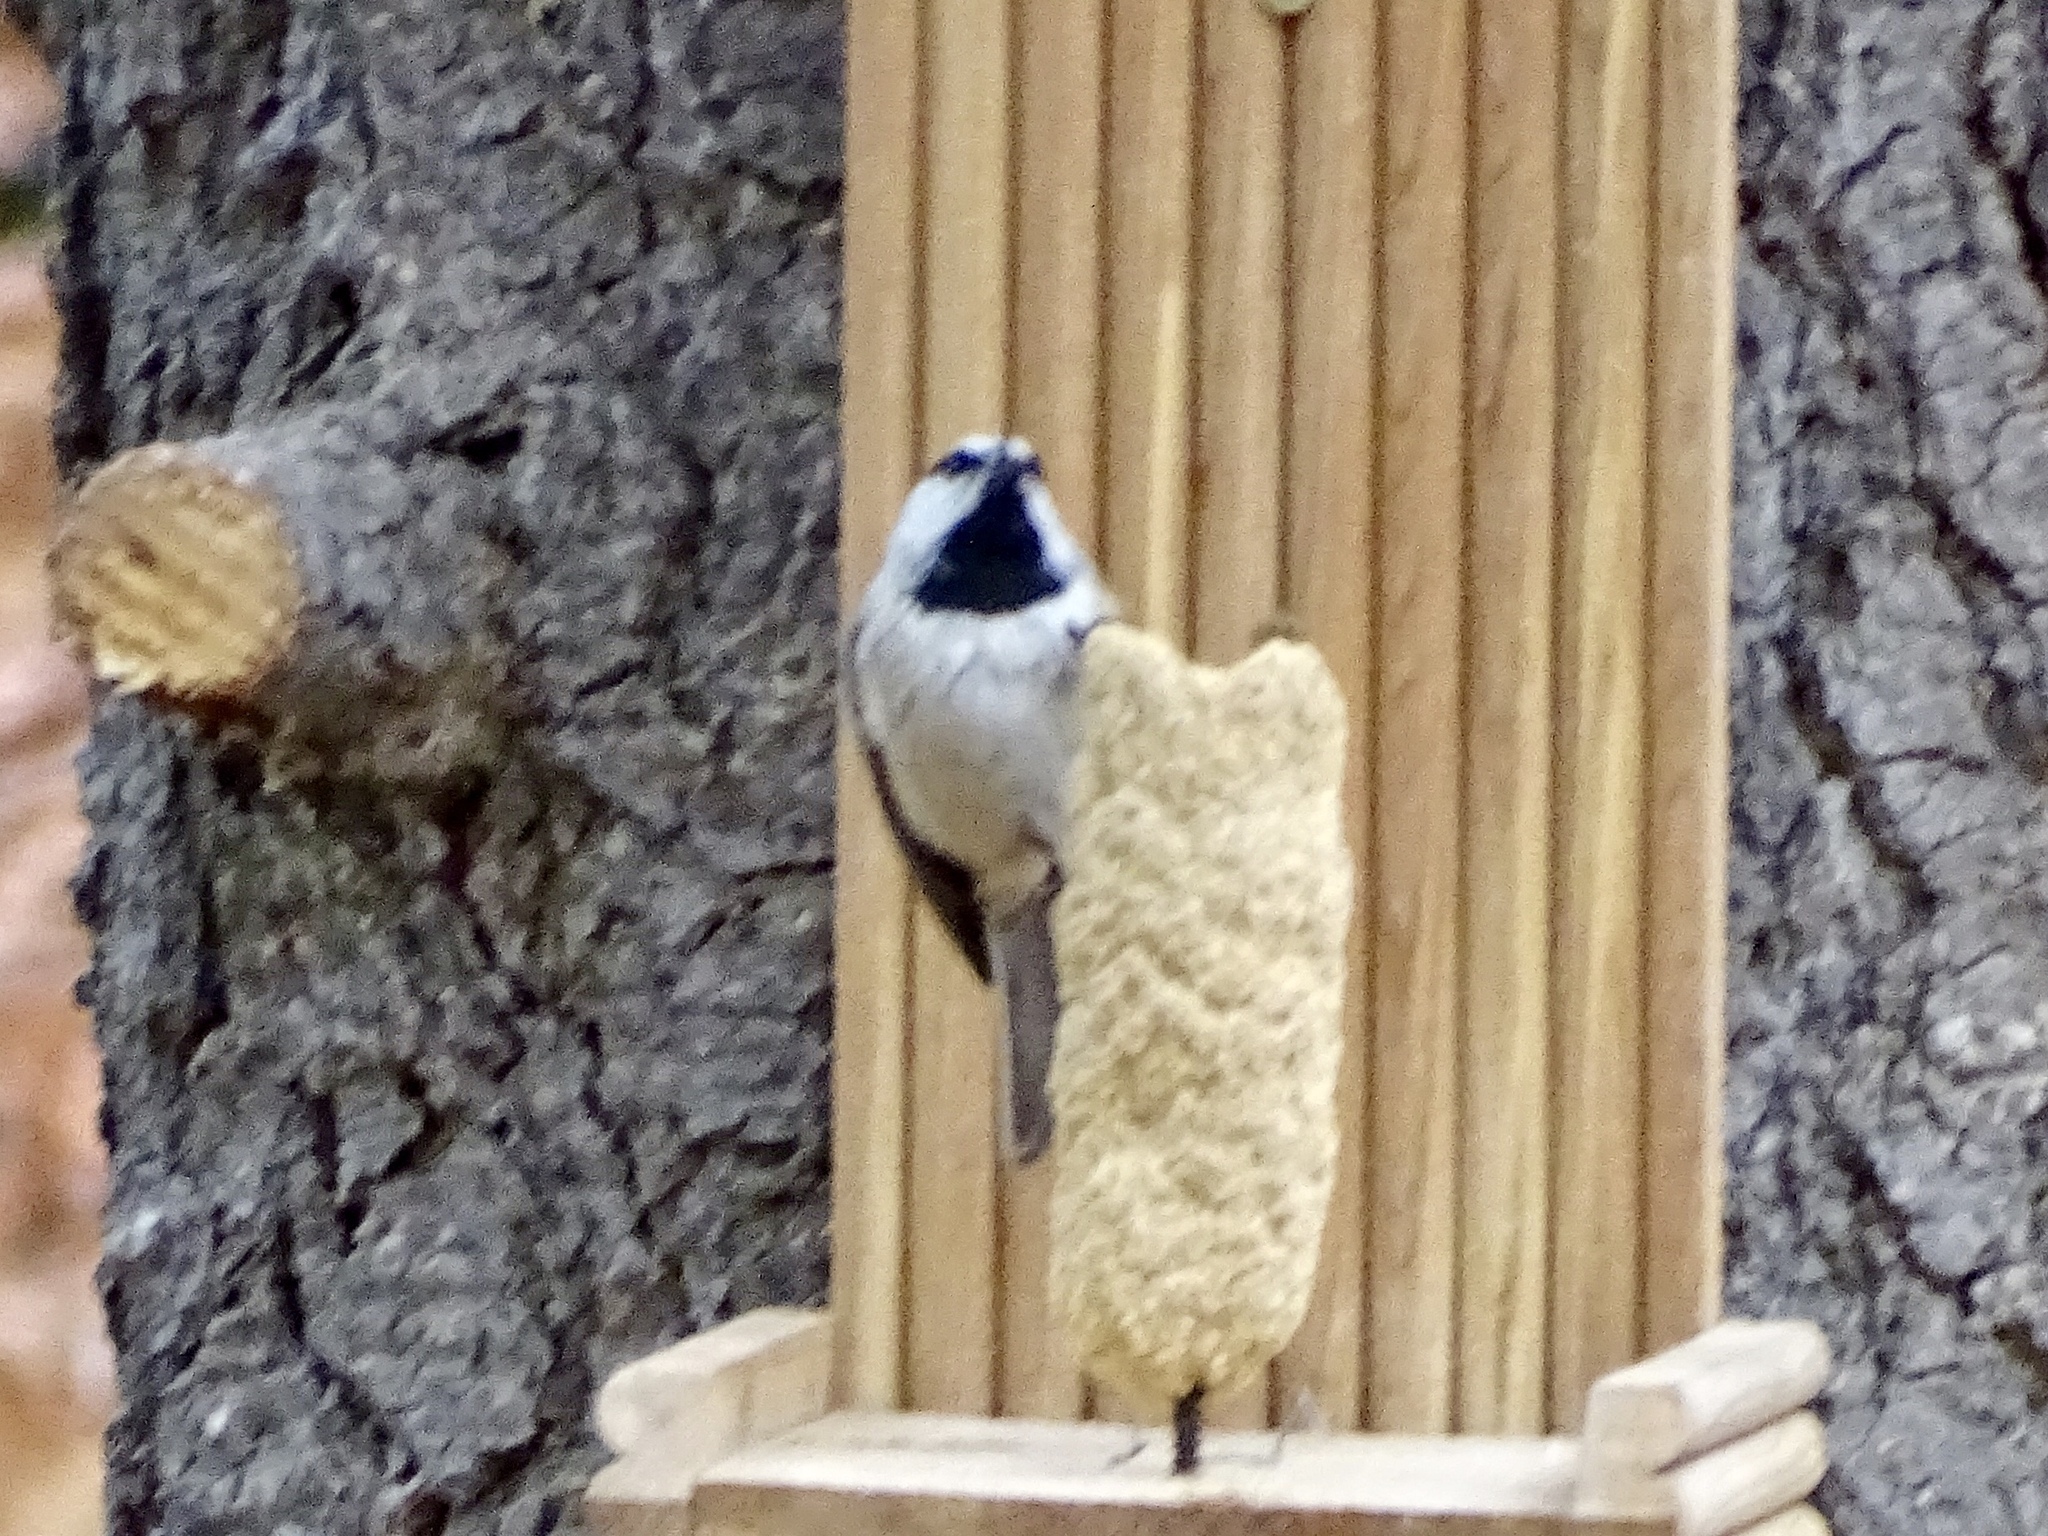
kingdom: Animalia
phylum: Chordata
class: Aves
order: Passeriformes
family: Paridae
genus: Poecile
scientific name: Poecile gambeli
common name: Mountain chickadee
